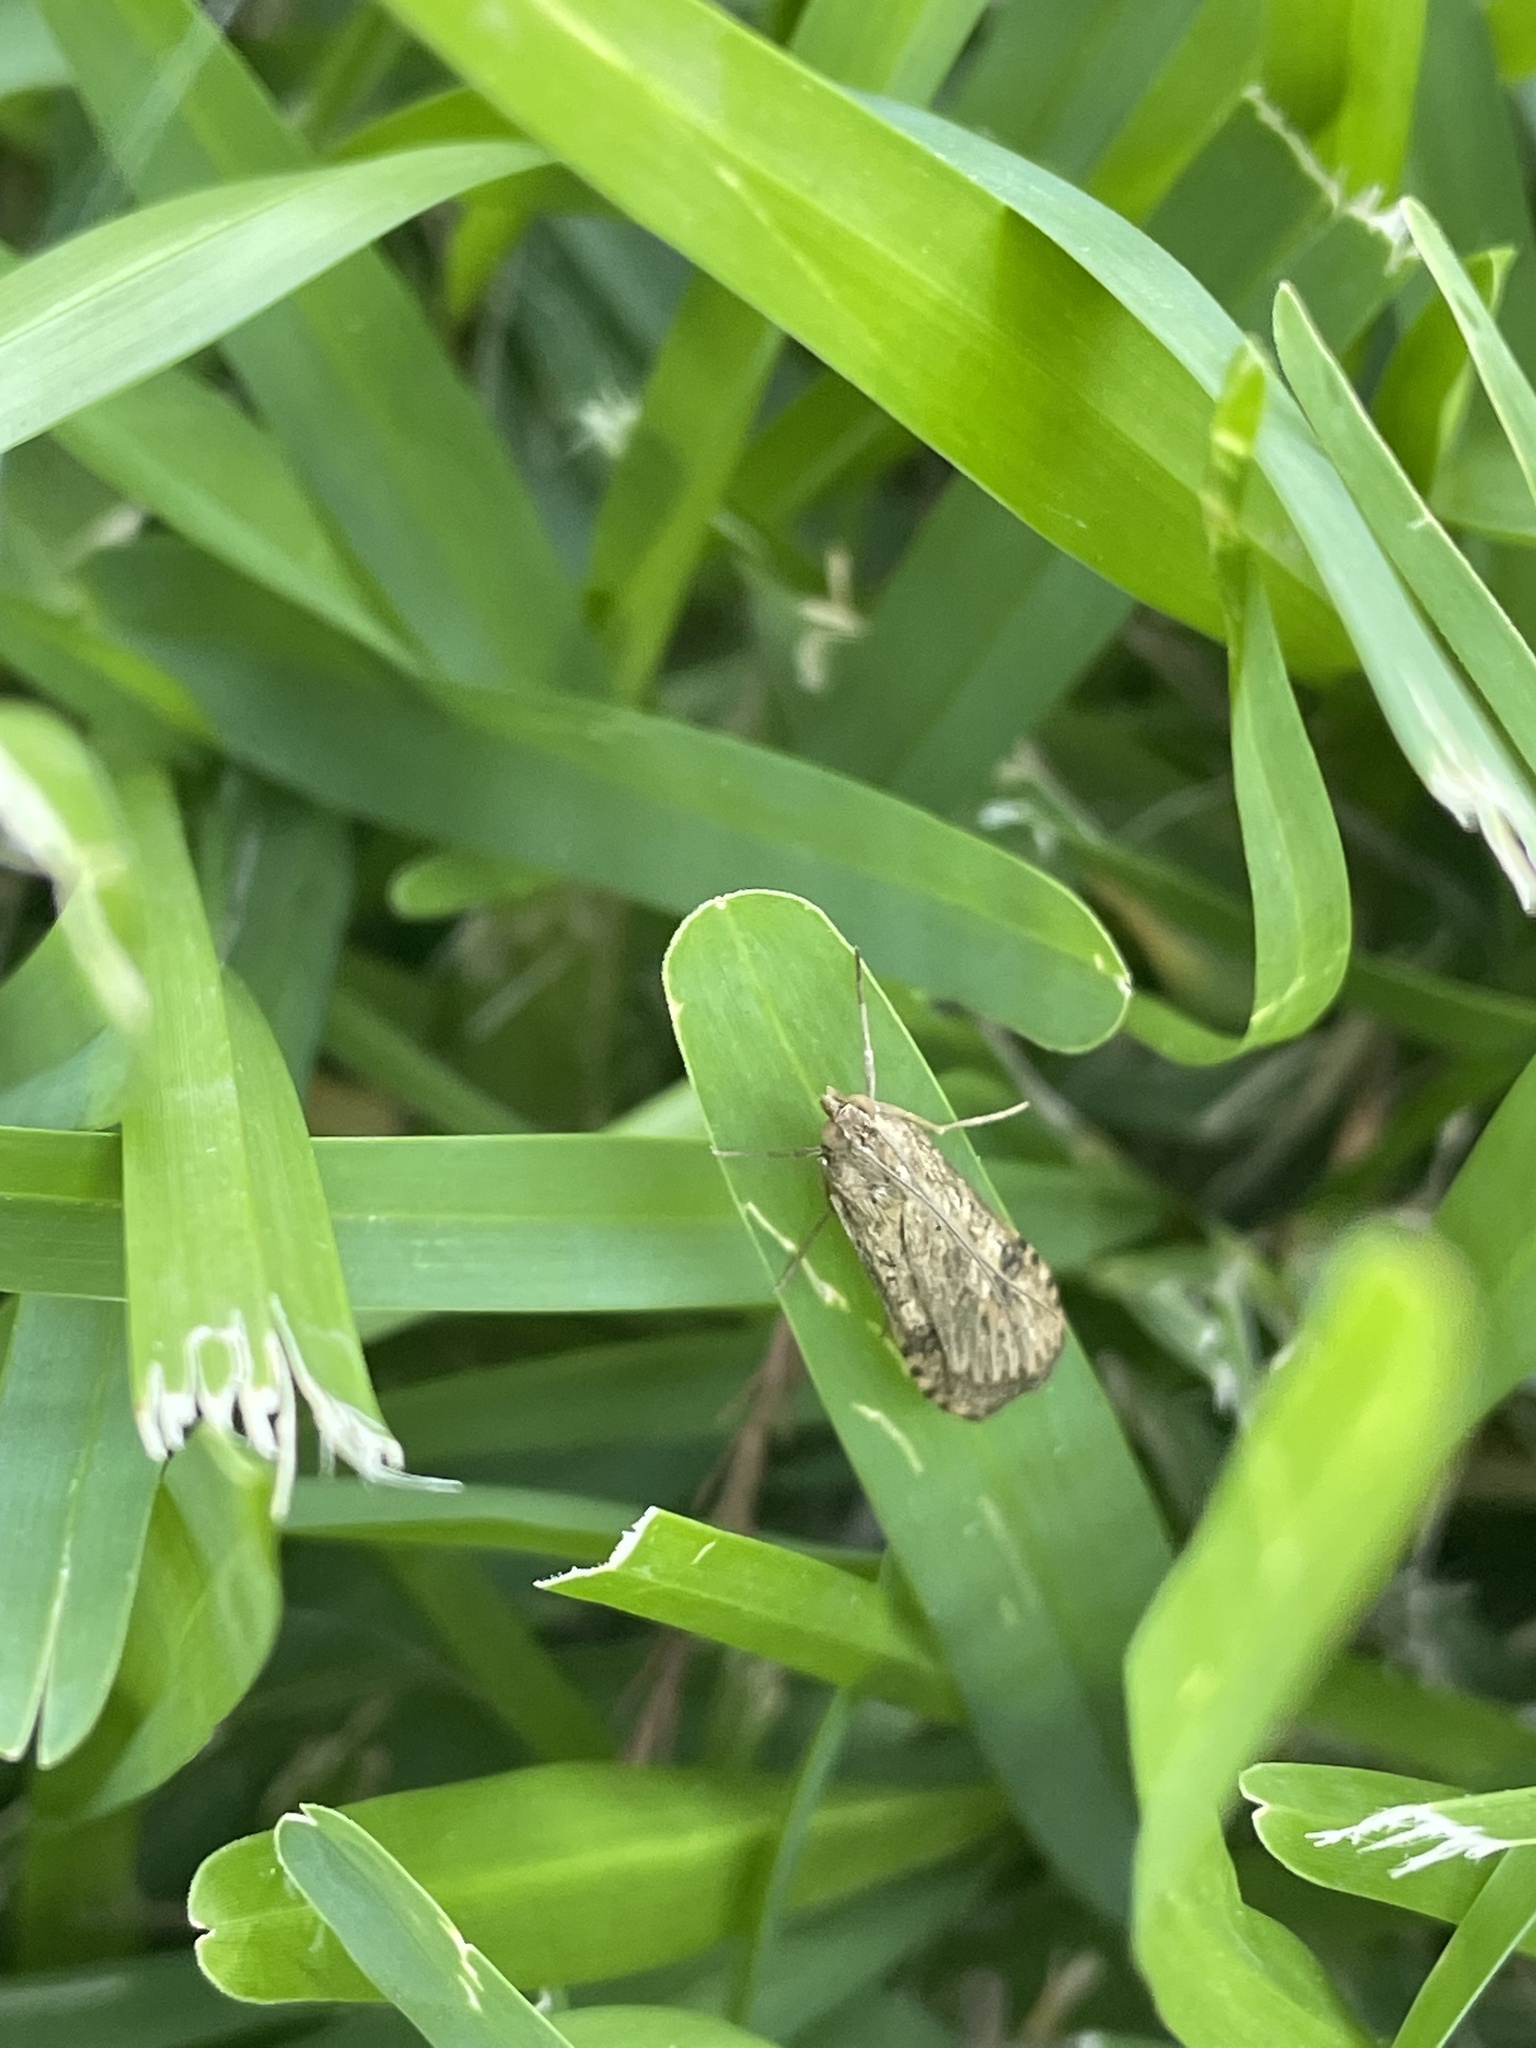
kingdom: Animalia
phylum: Arthropoda
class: Insecta
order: Lepidoptera
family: Crambidae
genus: Nomophila
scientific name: Nomophila nearctica
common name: American rush veneer
